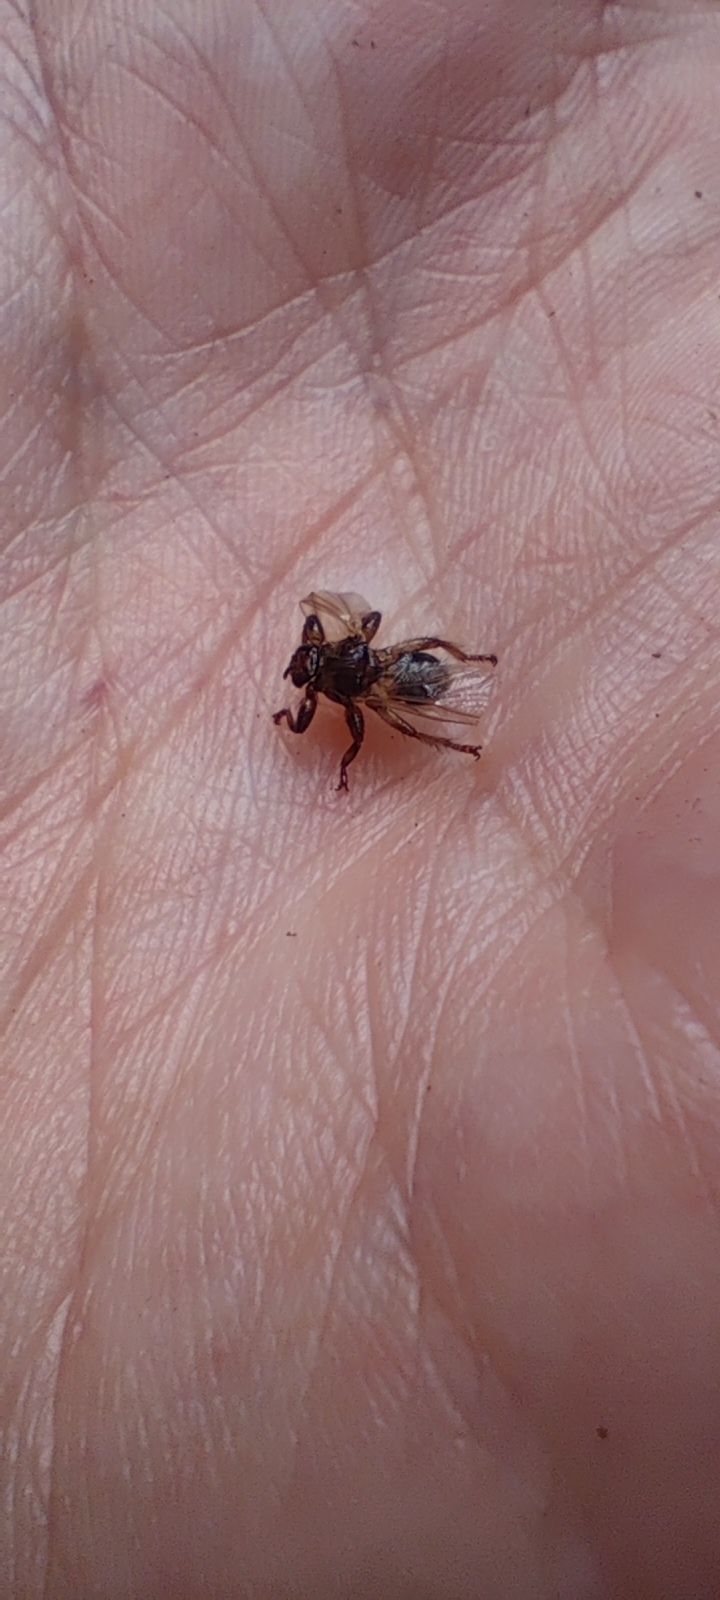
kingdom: Animalia
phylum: Arthropoda
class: Insecta
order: Diptera
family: Hippoboscidae
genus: Lipoptena
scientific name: Lipoptena cervi
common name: Deer ked
